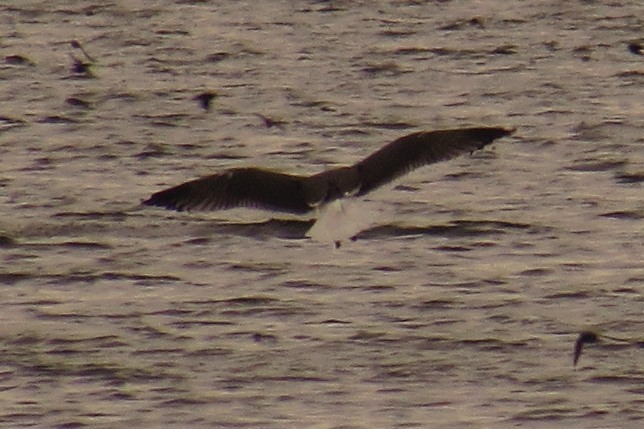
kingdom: Animalia
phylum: Chordata
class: Aves
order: Charadriiformes
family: Laridae
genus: Larus
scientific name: Larus marinus
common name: Great black-backed gull
